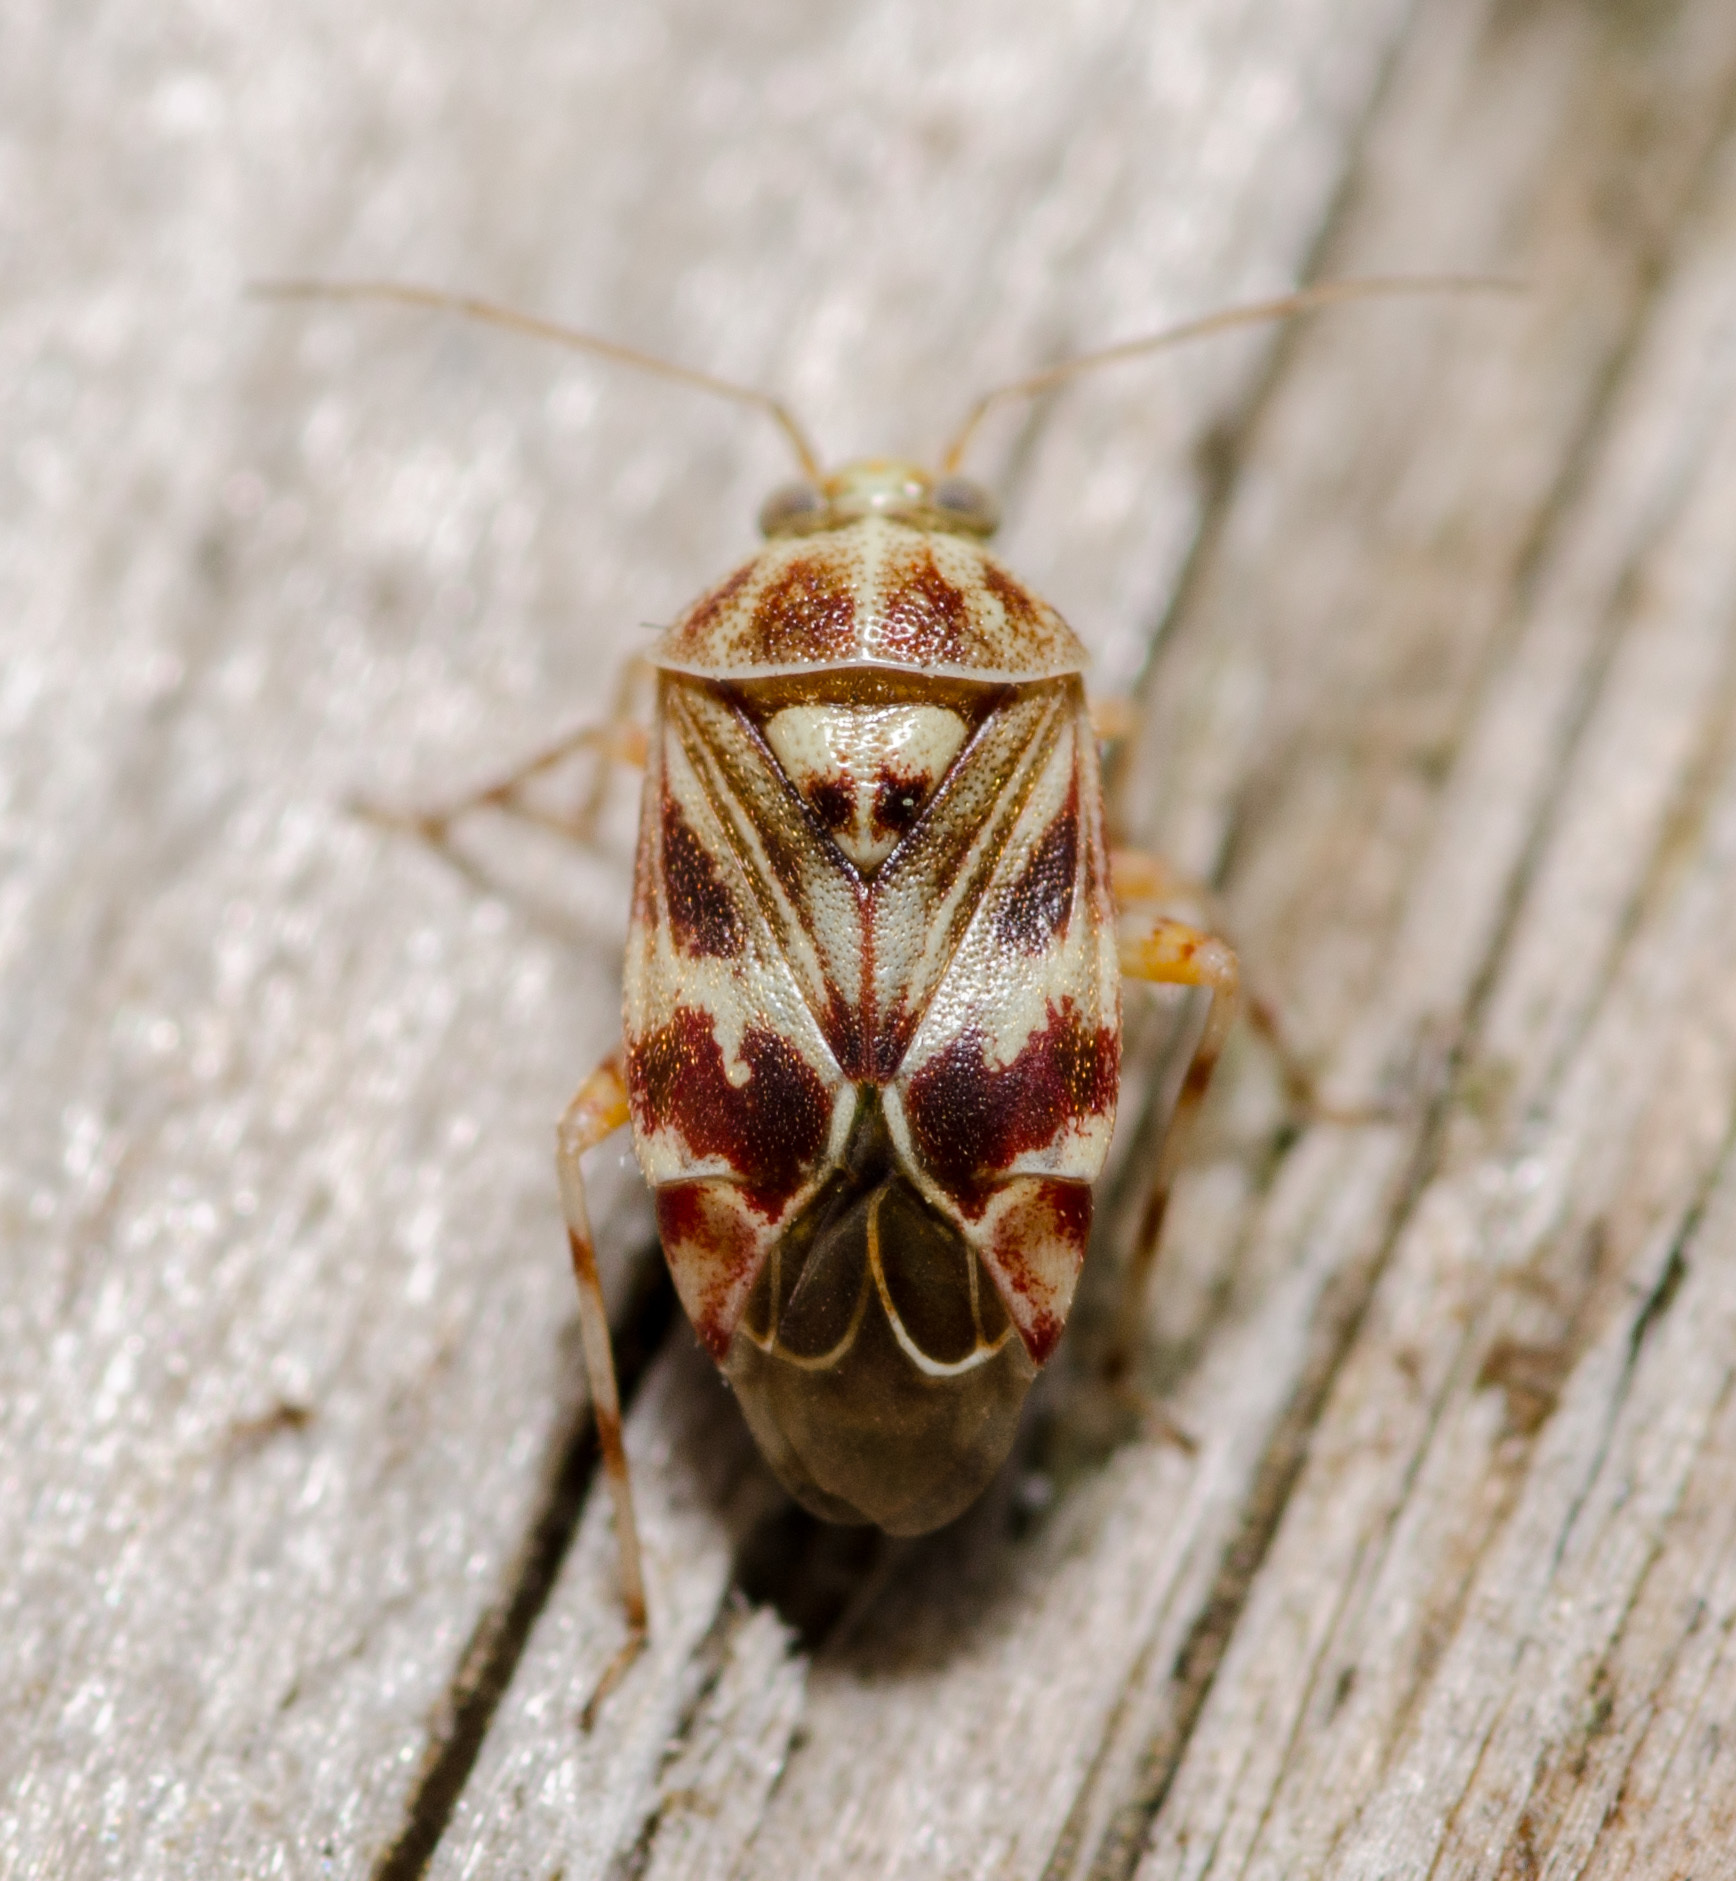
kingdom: Animalia
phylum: Arthropoda
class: Insecta
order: Hemiptera
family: Miridae
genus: Tropidosteptes
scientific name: Tropidosteptes quercicola
